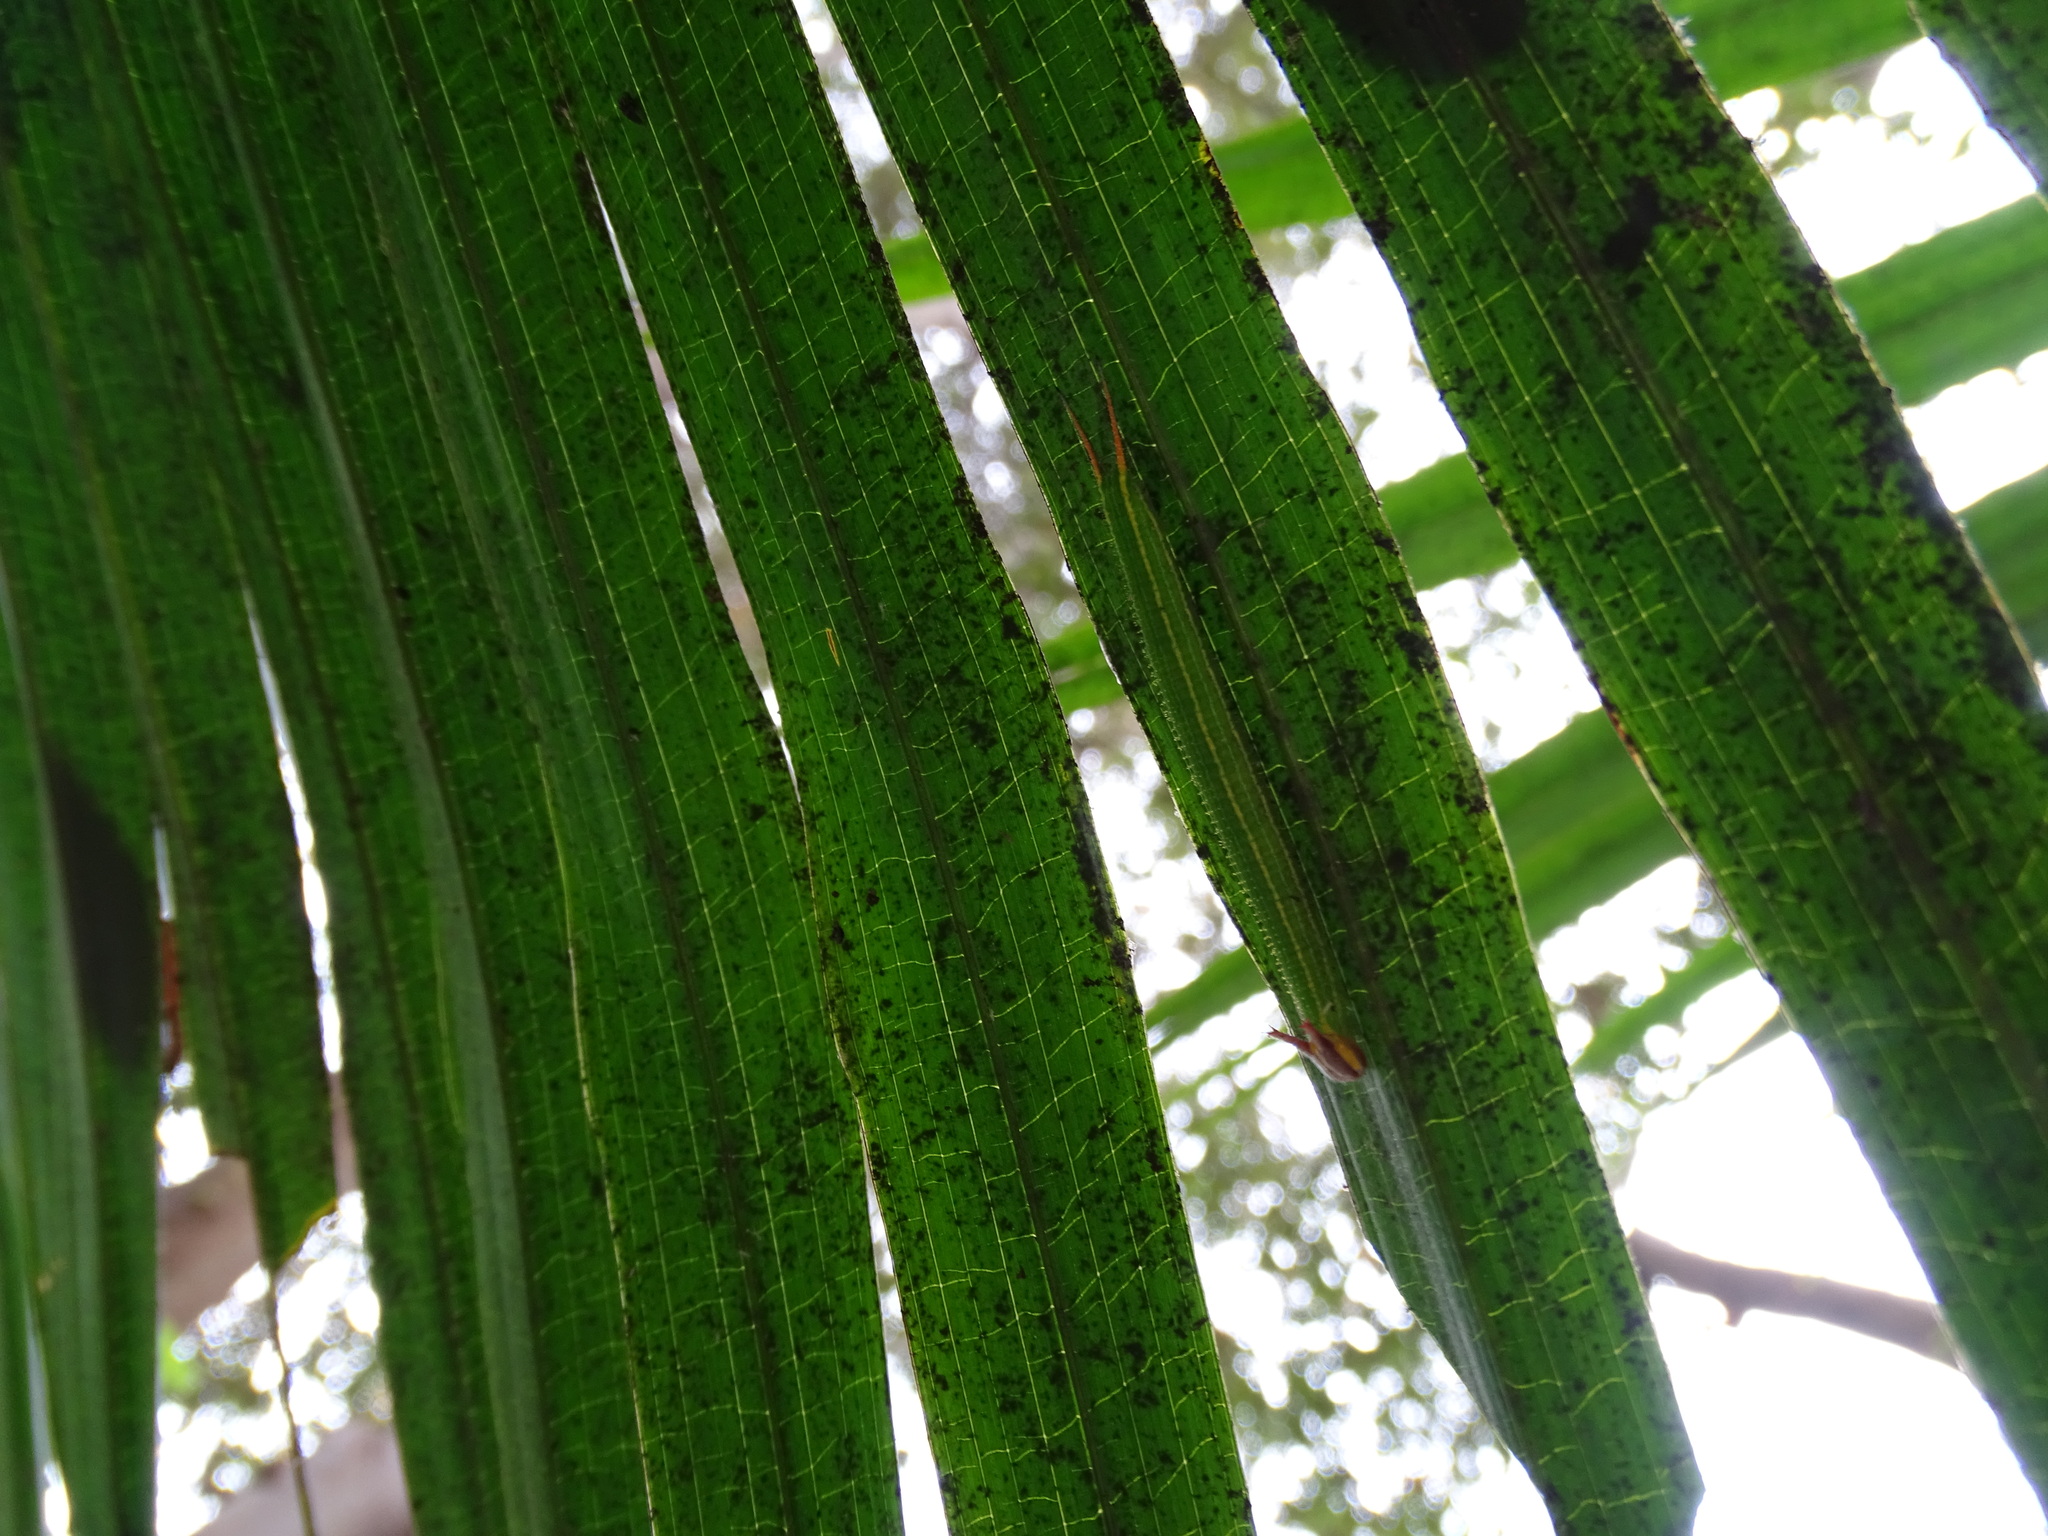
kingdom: Animalia
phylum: Arthropoda
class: Insecta
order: Lepidoptera
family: Nymphalidae
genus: Elymnias
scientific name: Elymnias hypermnestra
